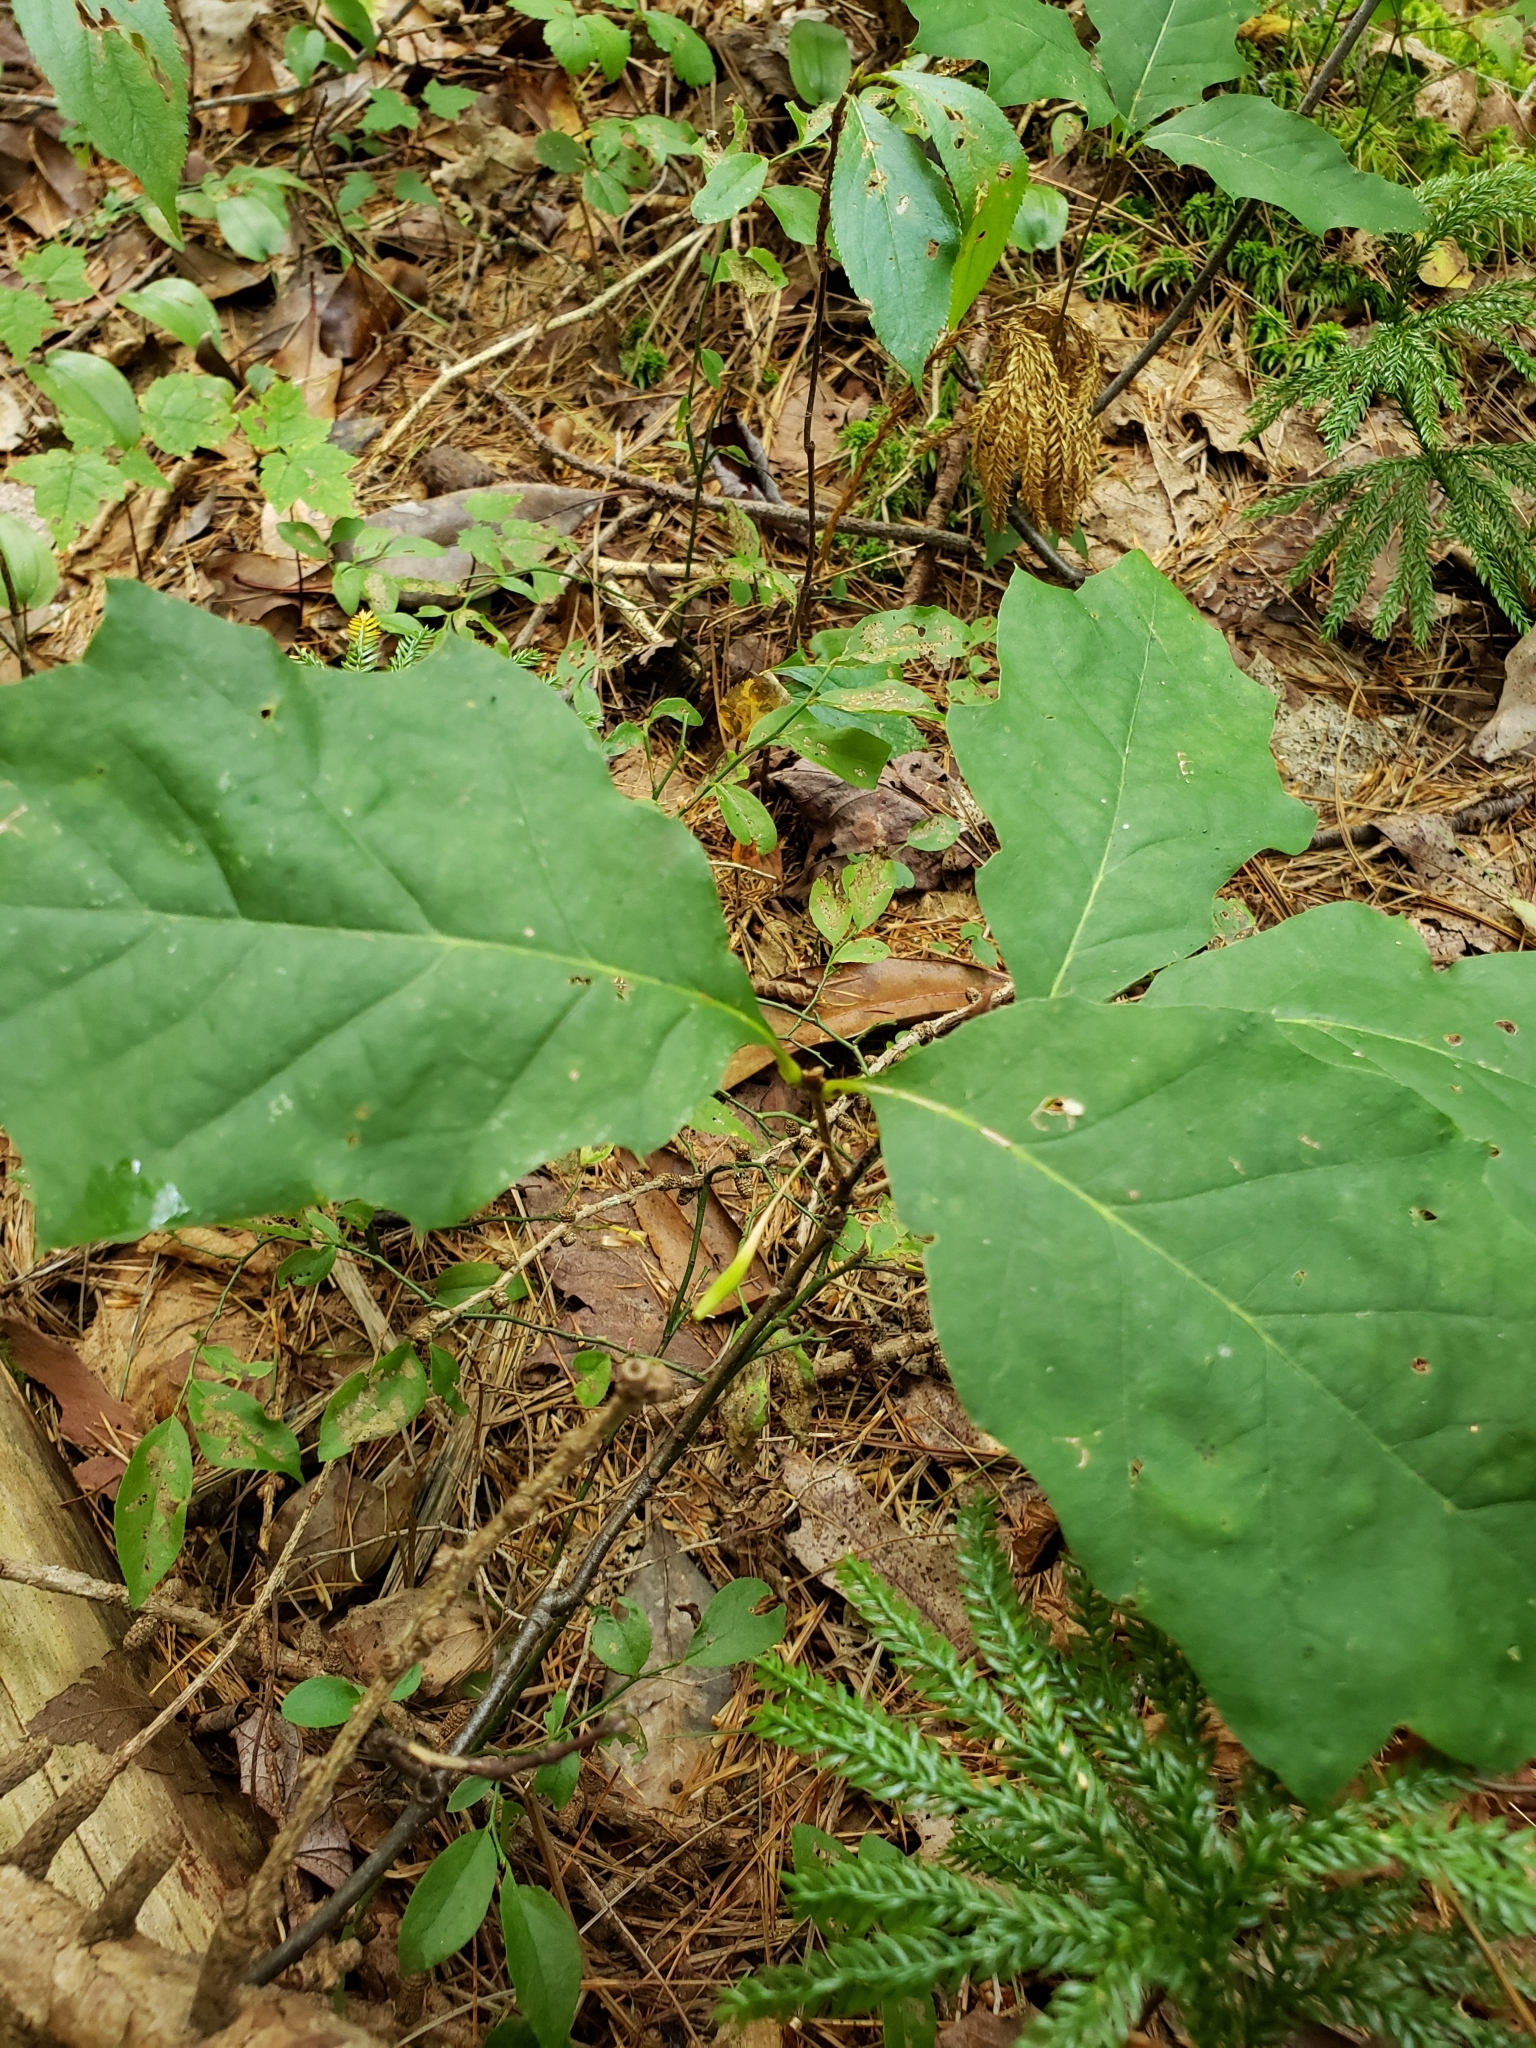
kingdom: Animalia
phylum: Arthropoda
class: Insecta
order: Hymenoptera
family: Cynipidae
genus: Callirhytis
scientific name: Callirhytis
